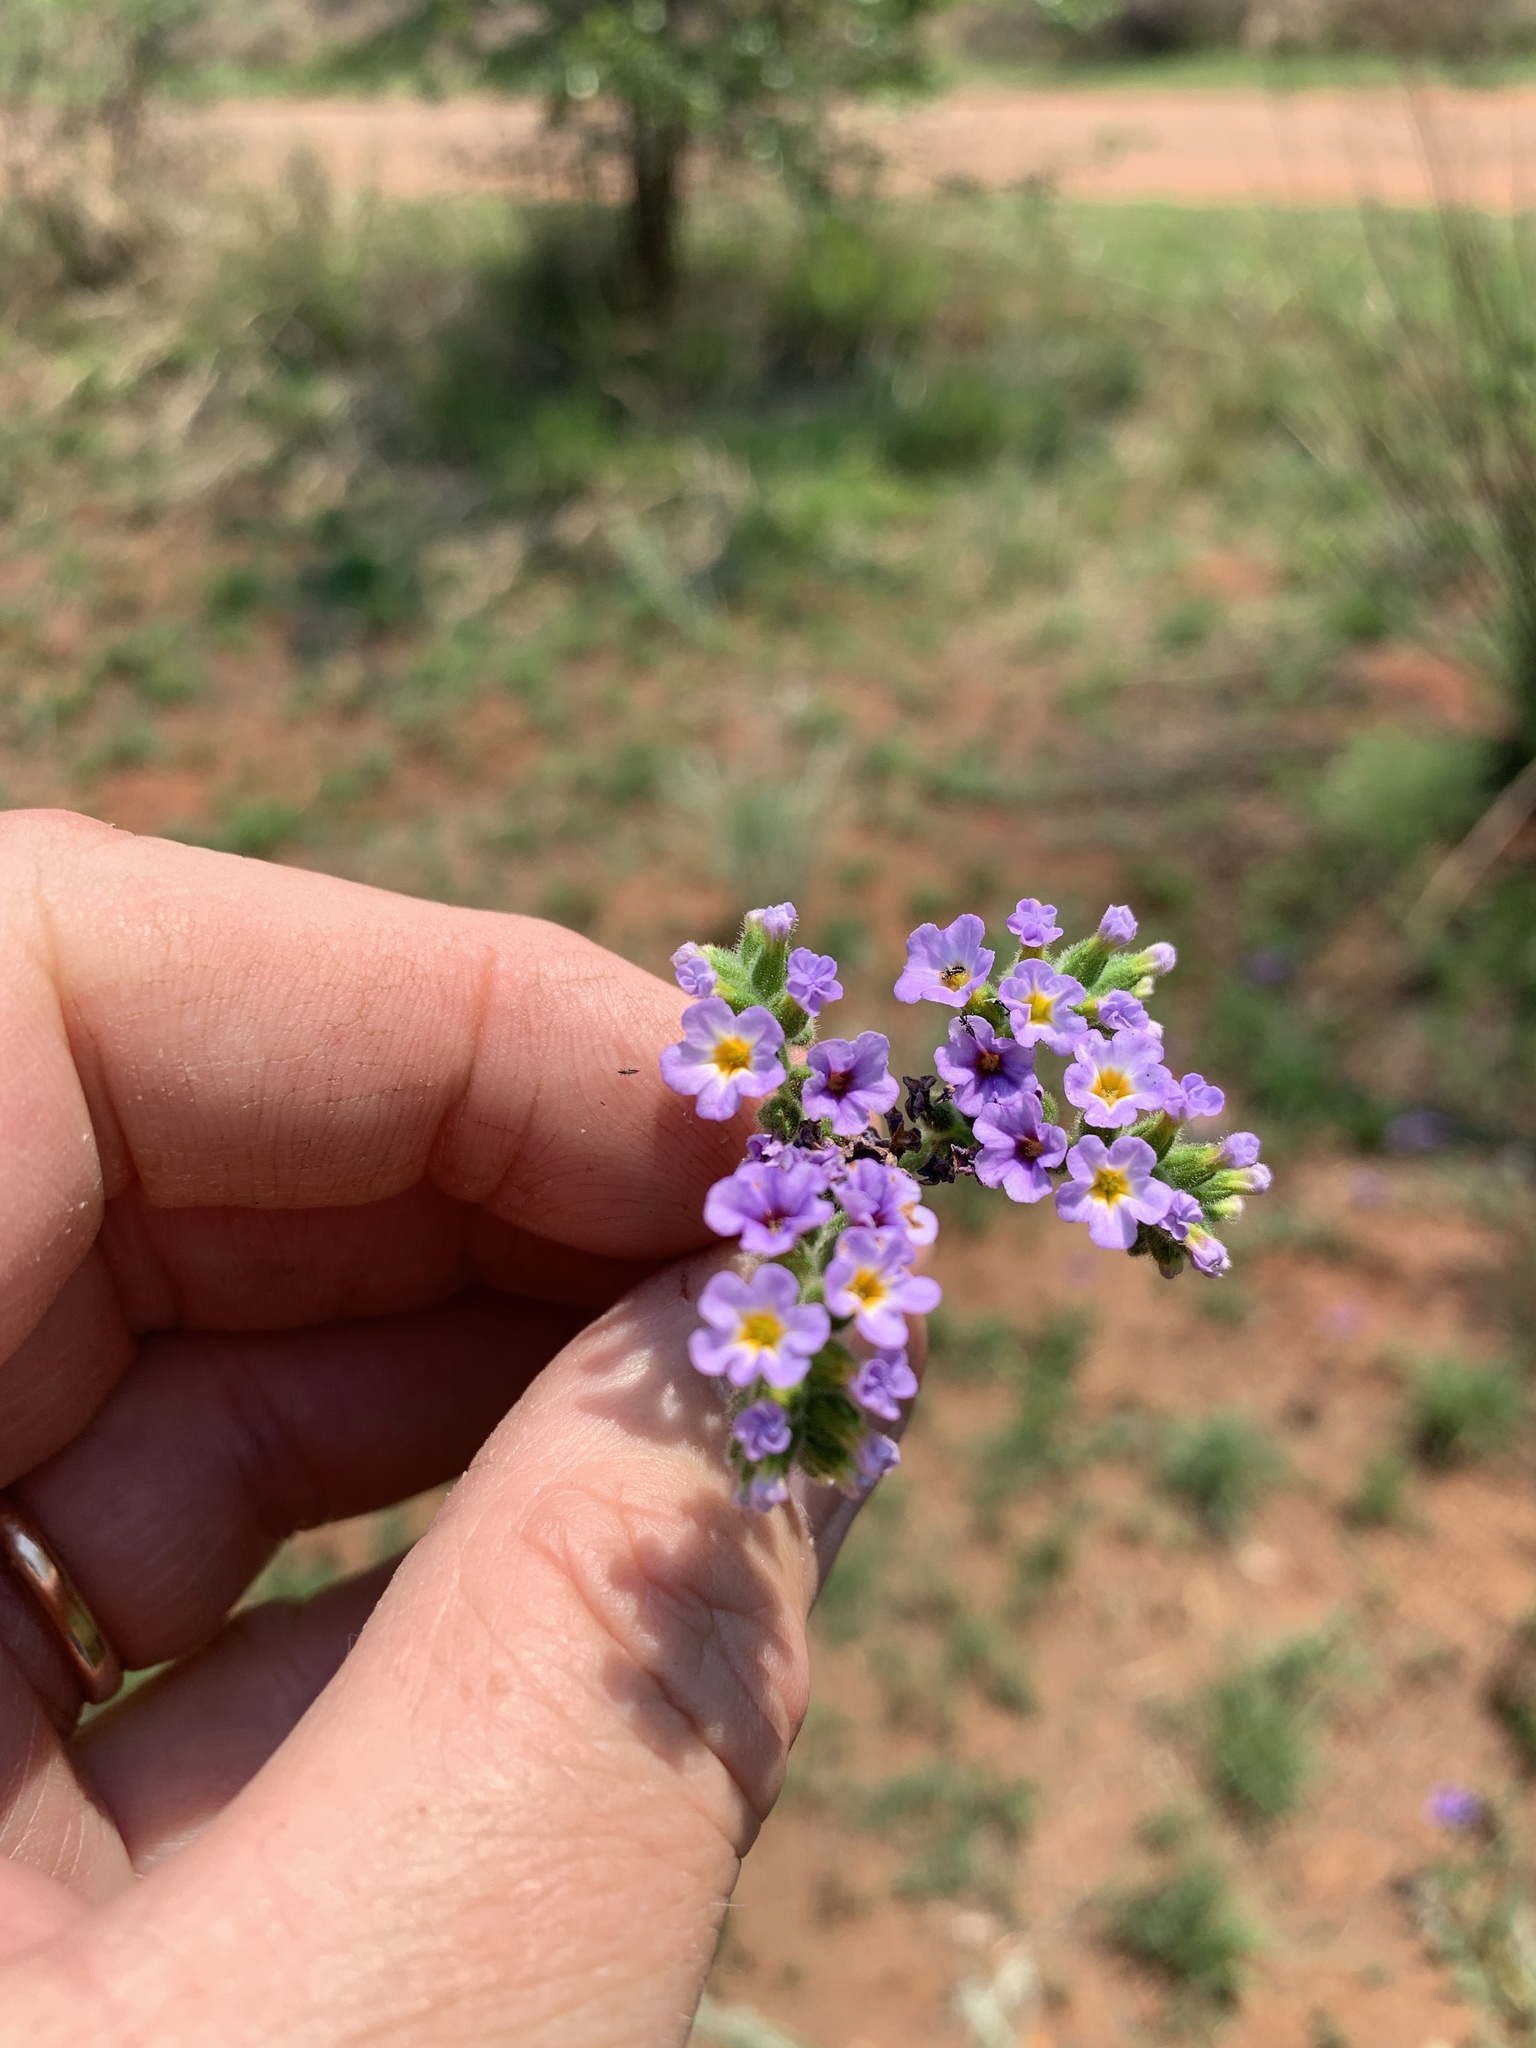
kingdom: Plantae
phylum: Tracheophyta
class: Magnoliopsida
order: Boraginales
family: Heliotropiaceae
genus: Heliotropium
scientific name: Heliotropium amplexicaule
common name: Clasping heliotrope
